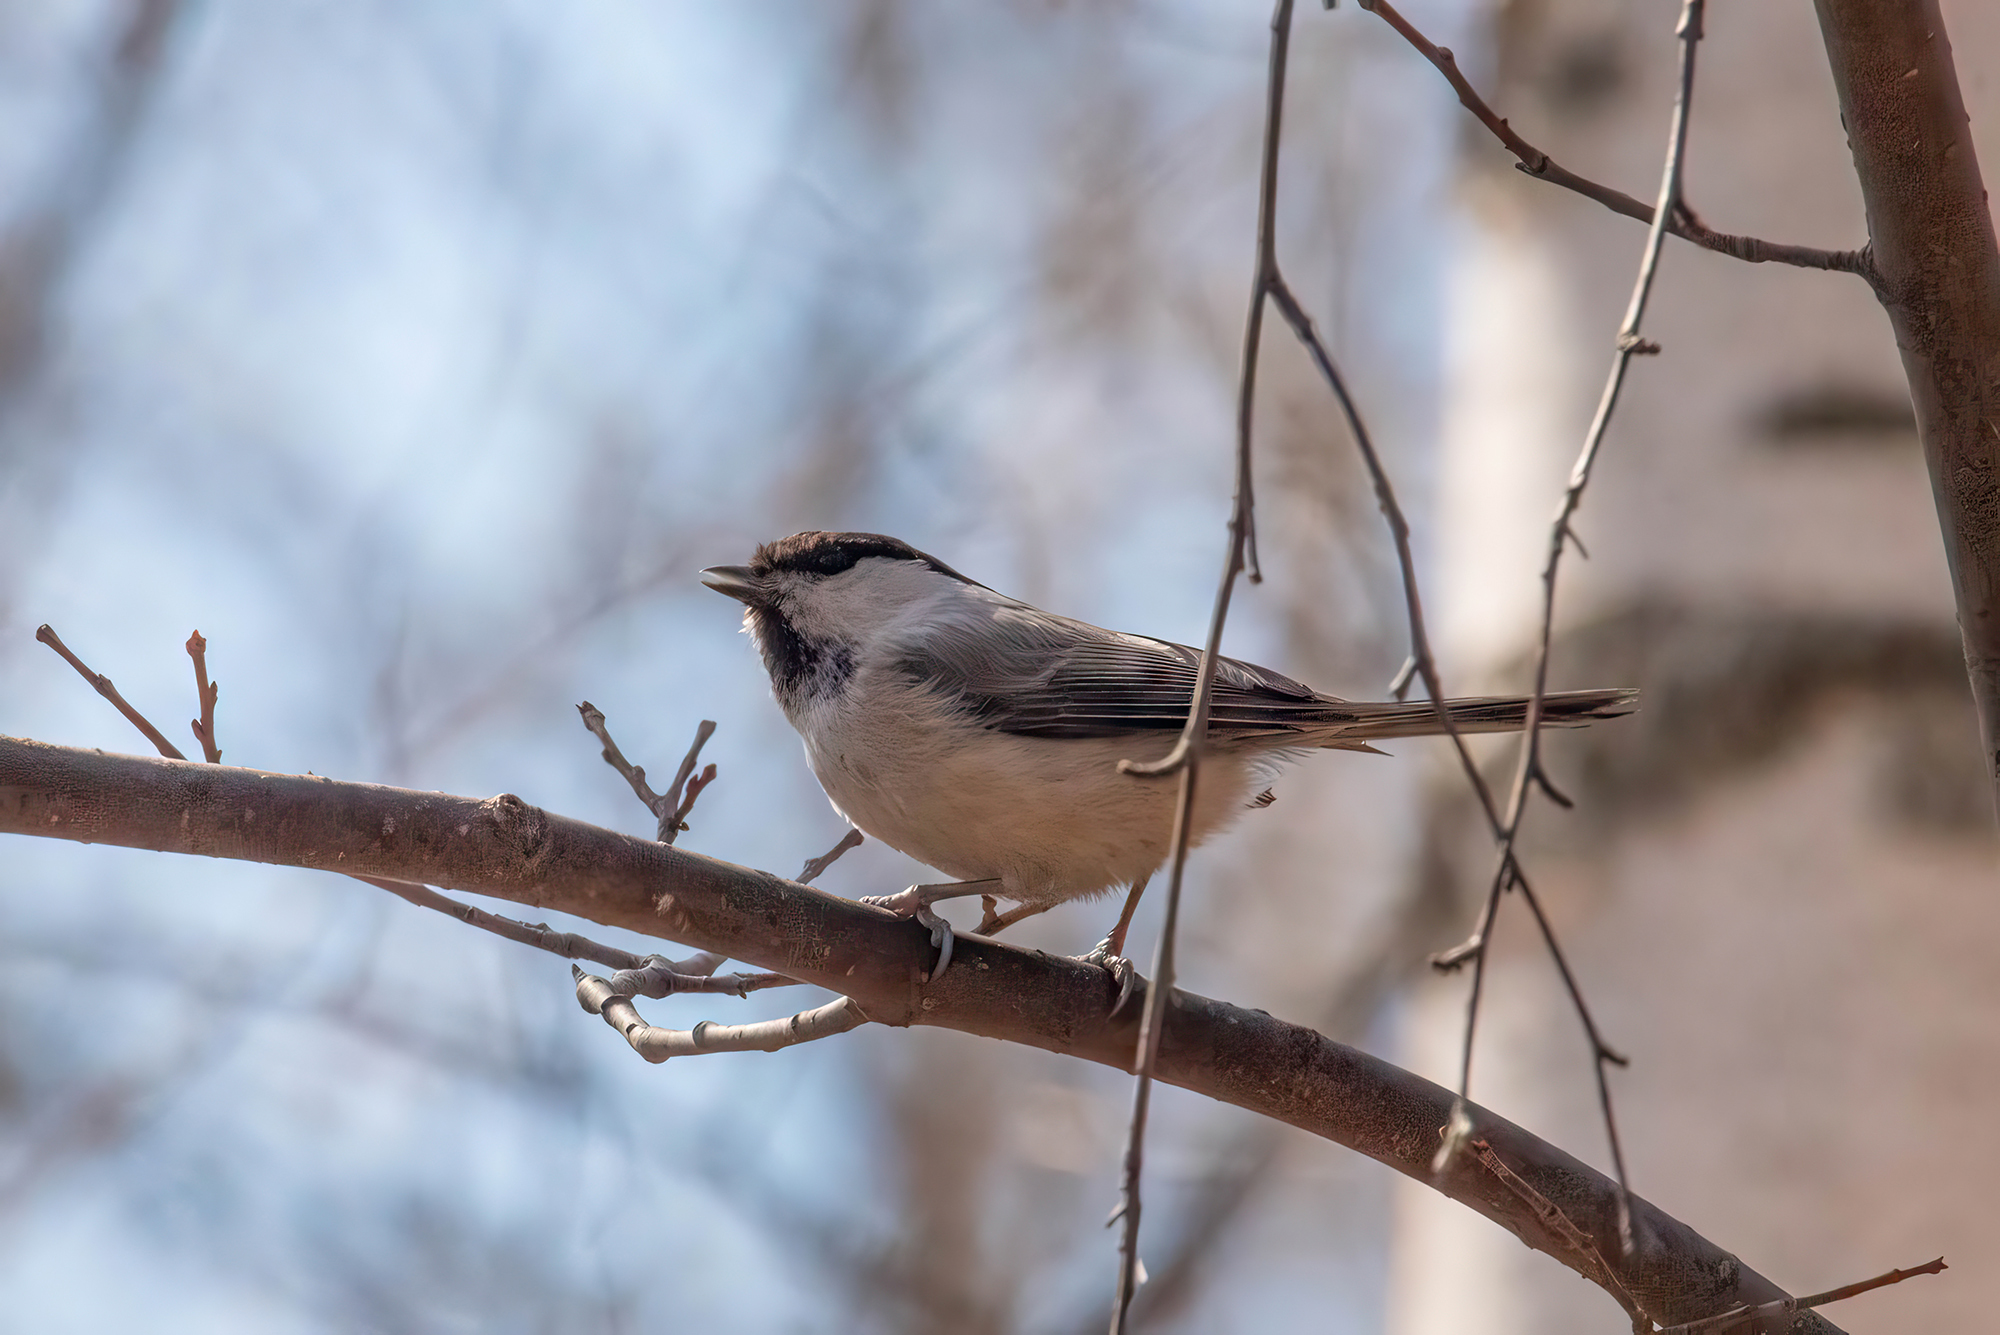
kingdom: Animalia
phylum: Chordata
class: Aves
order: Passeriformes
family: Paridae
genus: Poecile
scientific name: Poecile montanus
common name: Willow tit
